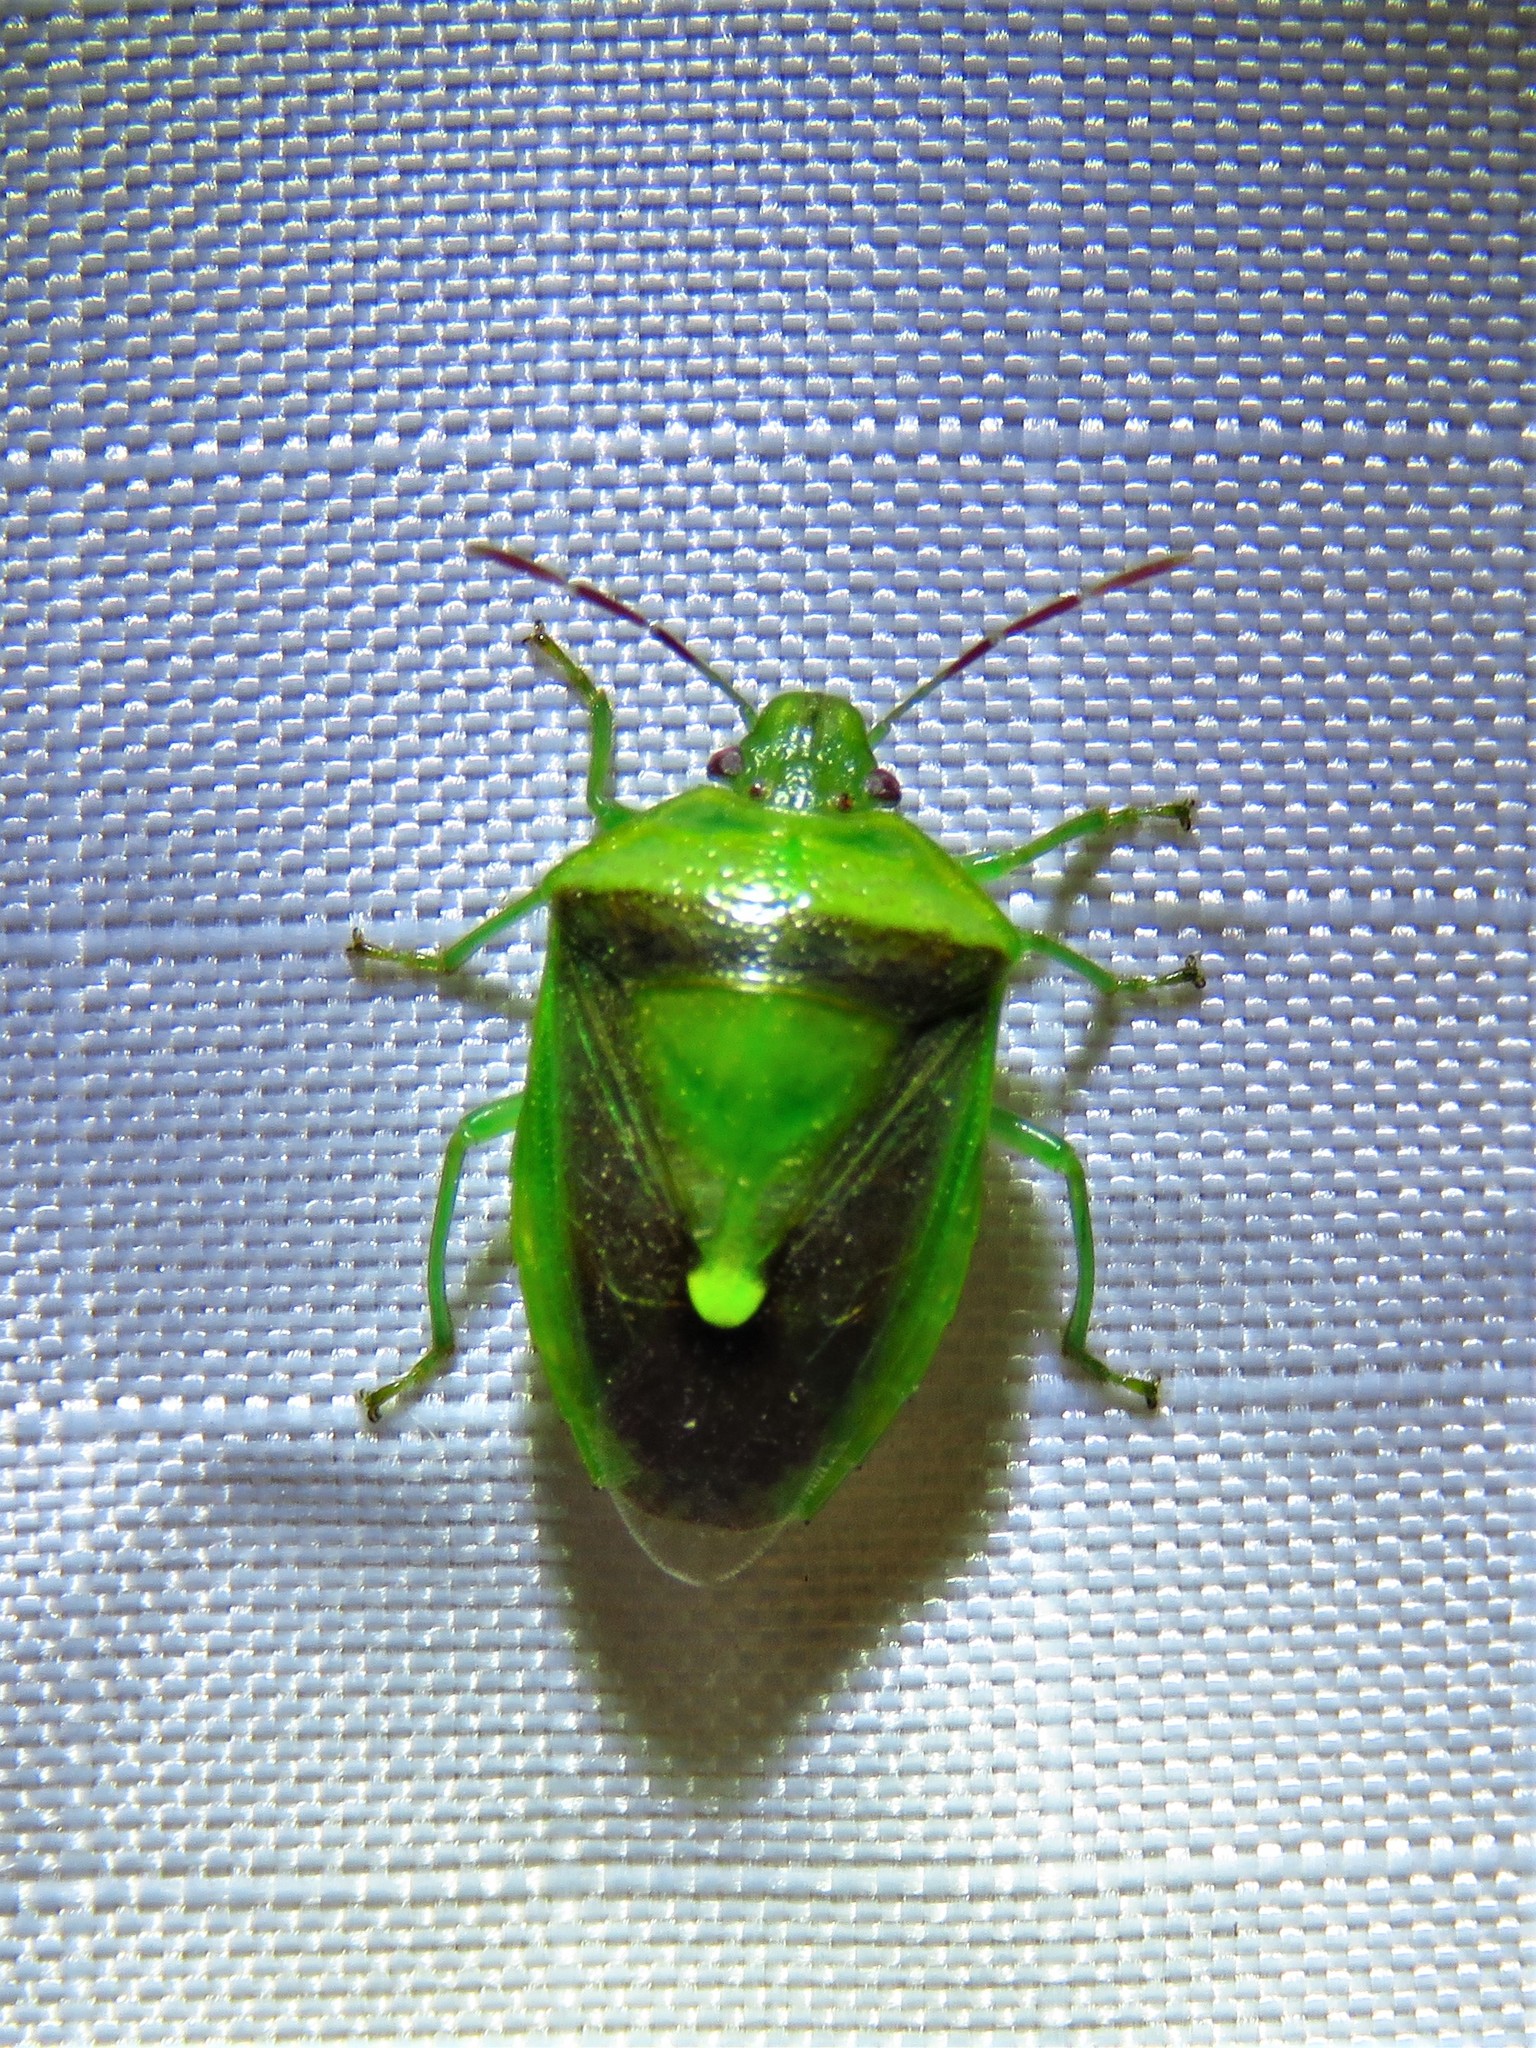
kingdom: Animalia
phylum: Arthropoda
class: Insecta
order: Hemiptera
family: Pentatomidae
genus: Banasa
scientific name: Banasa dimidiata
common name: Green burgundy stink bug
